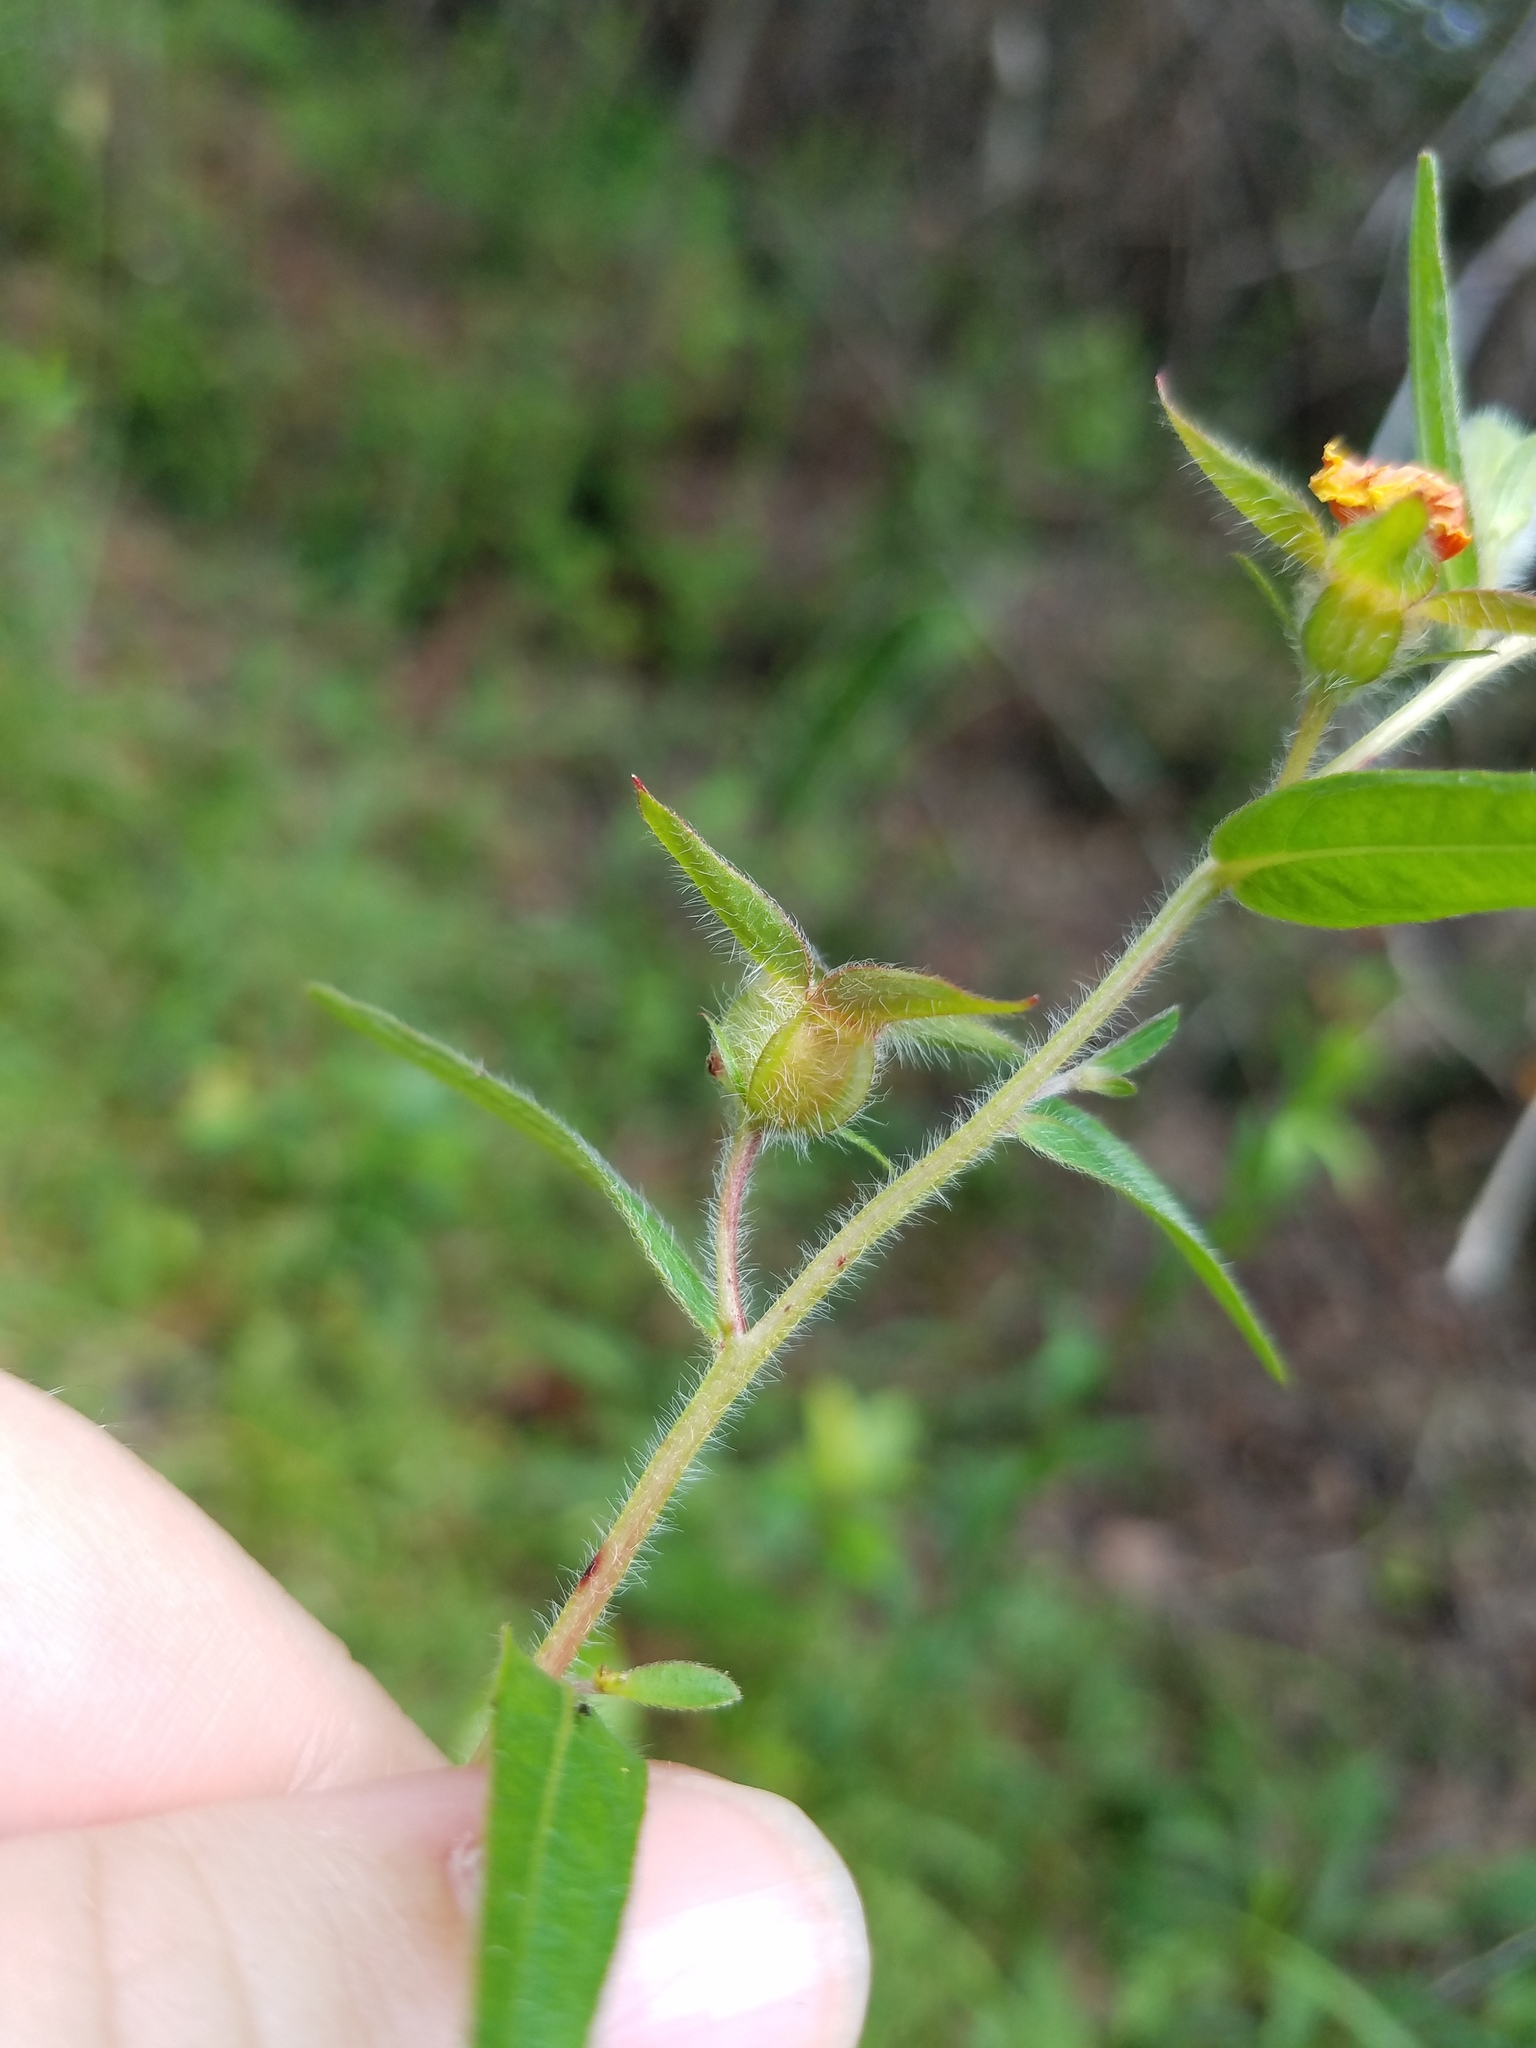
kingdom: Plantae
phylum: Tracheophyta
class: Magnoliopsida
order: Myrtales
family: Onagraceae
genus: Ludwigia
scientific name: Ludwigia hirtella
